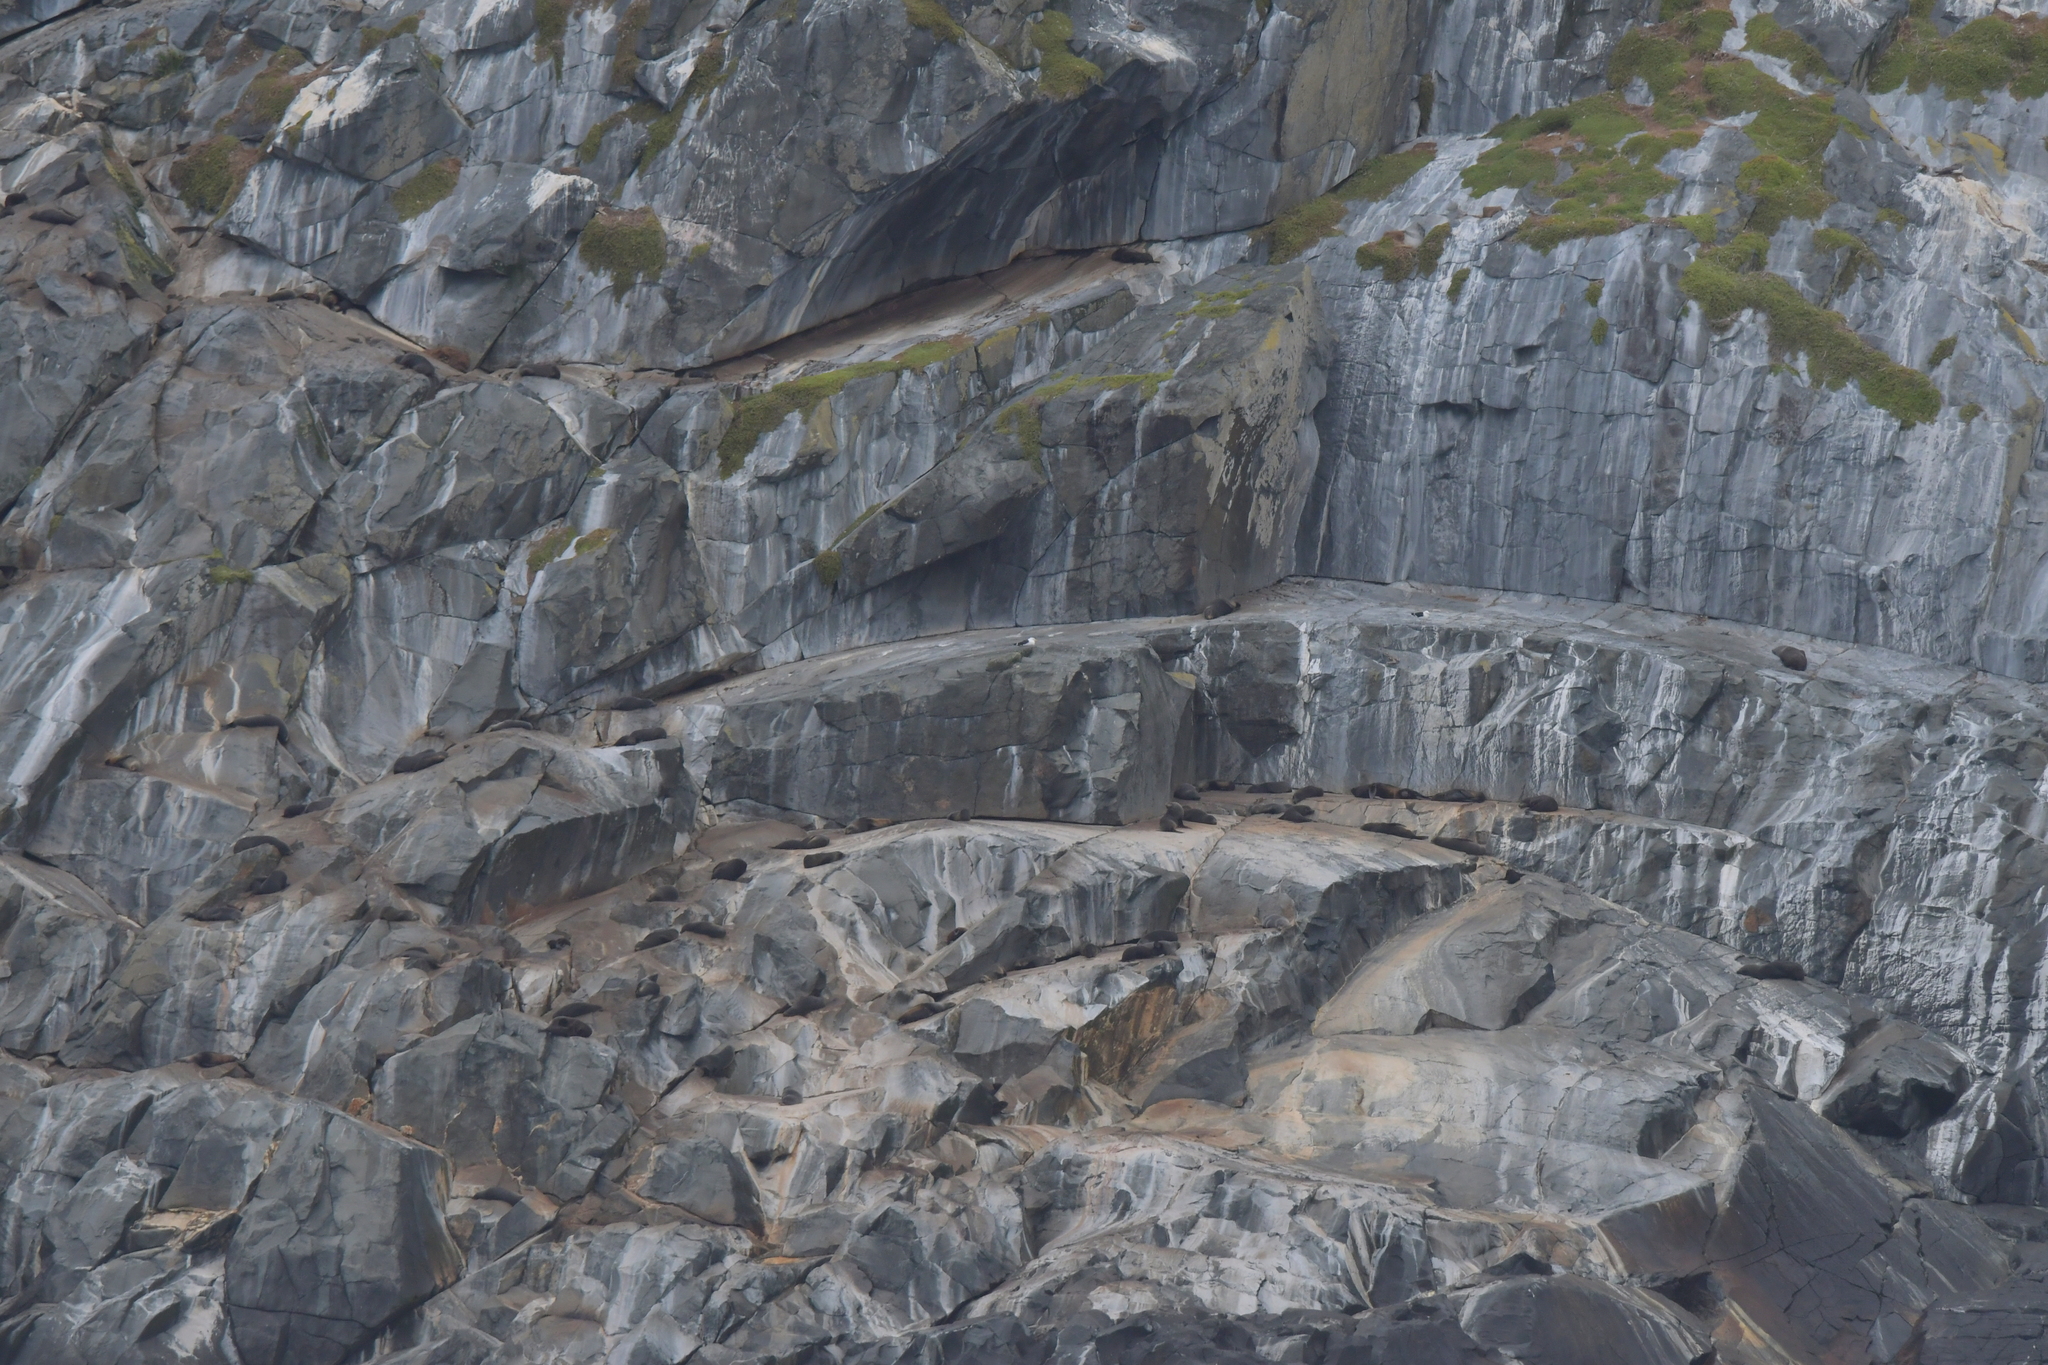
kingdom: Animalia
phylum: Chordata
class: Mammalia
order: Carnivora
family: Otariidae
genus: Arctocephalus
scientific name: Arctocephalus forsteri
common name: New zealand fur seal
